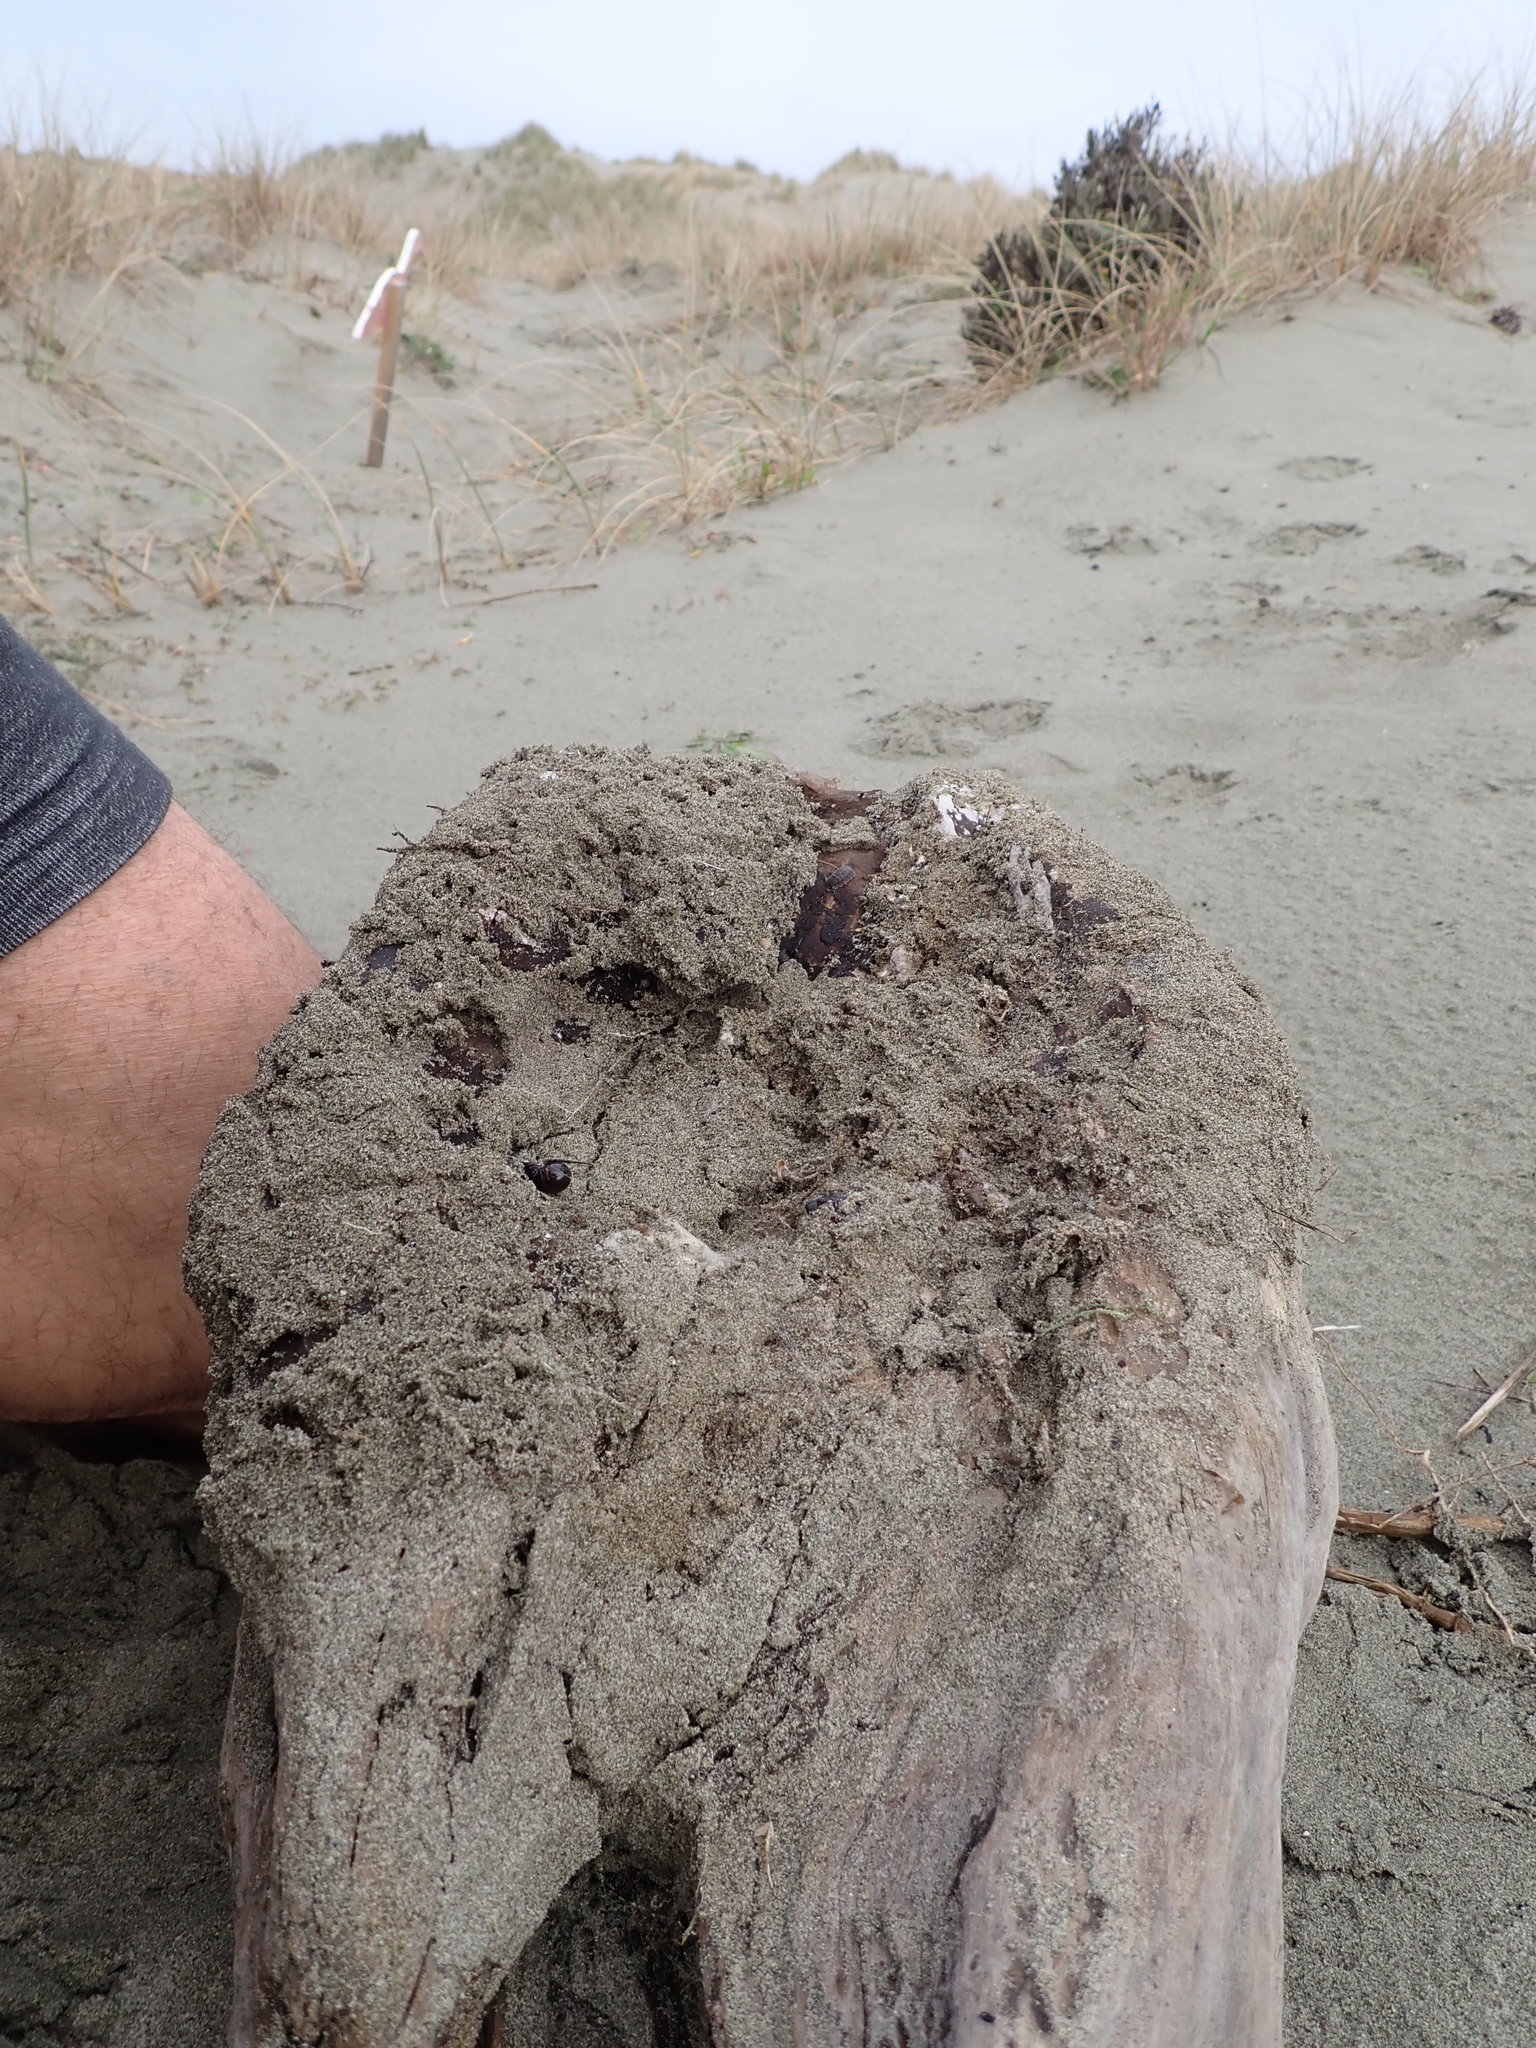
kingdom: Animalia
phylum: Arthropoda
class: Arachnida
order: Araneae
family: Theridiidae
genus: Steatoda
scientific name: Steatoda capensis
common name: Cobweb weaver
